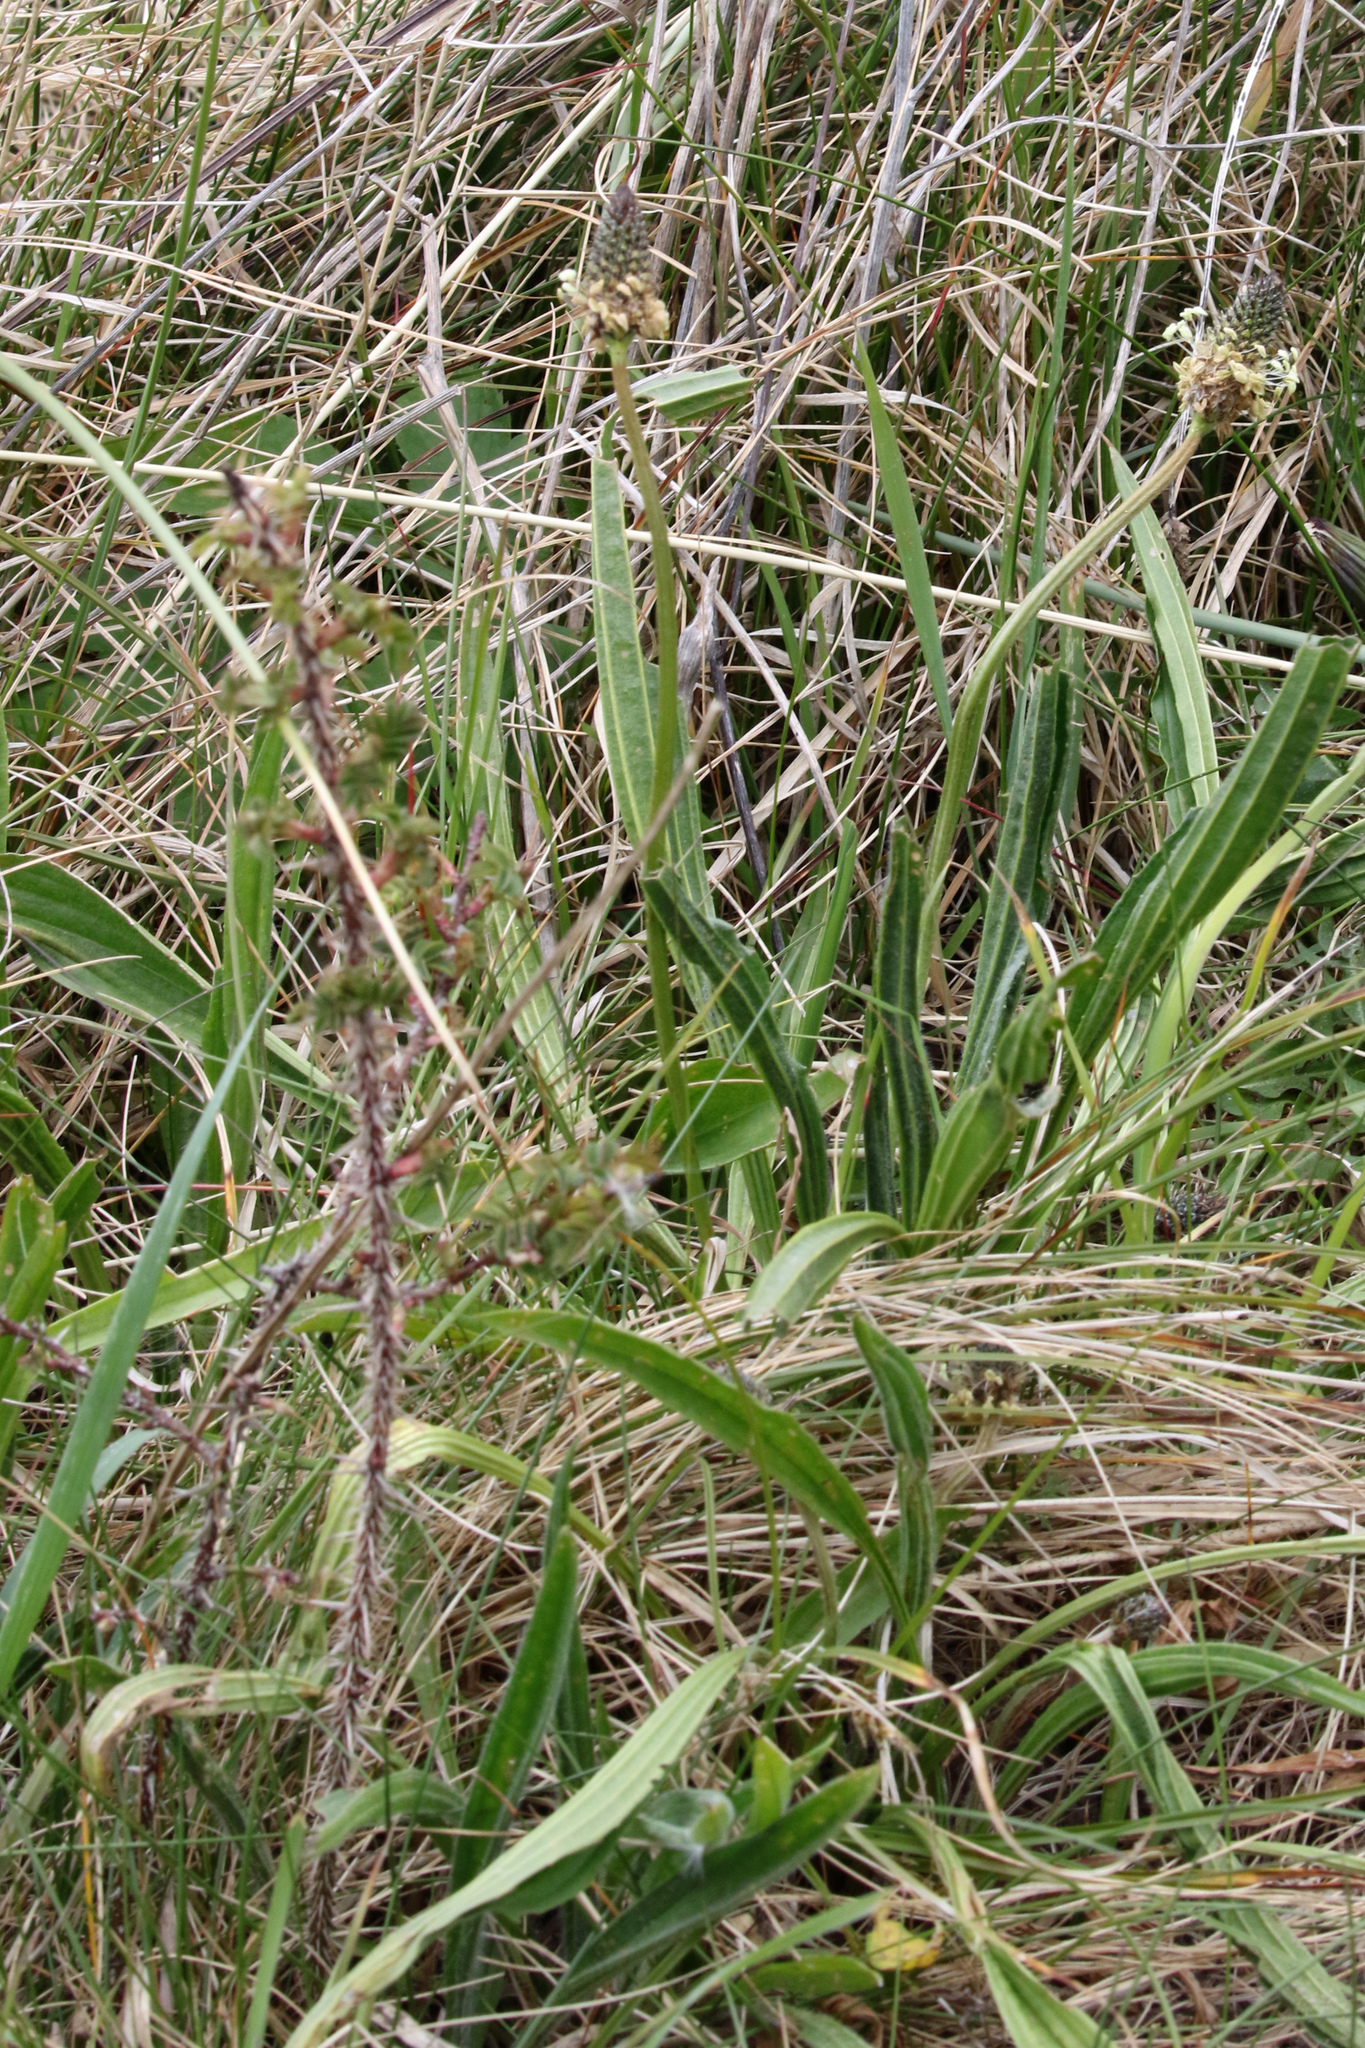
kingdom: Plantae
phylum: Tracheophyta
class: Magnoliopsida
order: Lamiales
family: Plantaginaceae
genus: Plantago
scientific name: Plantago lanceolata
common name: Ribwort plantain
